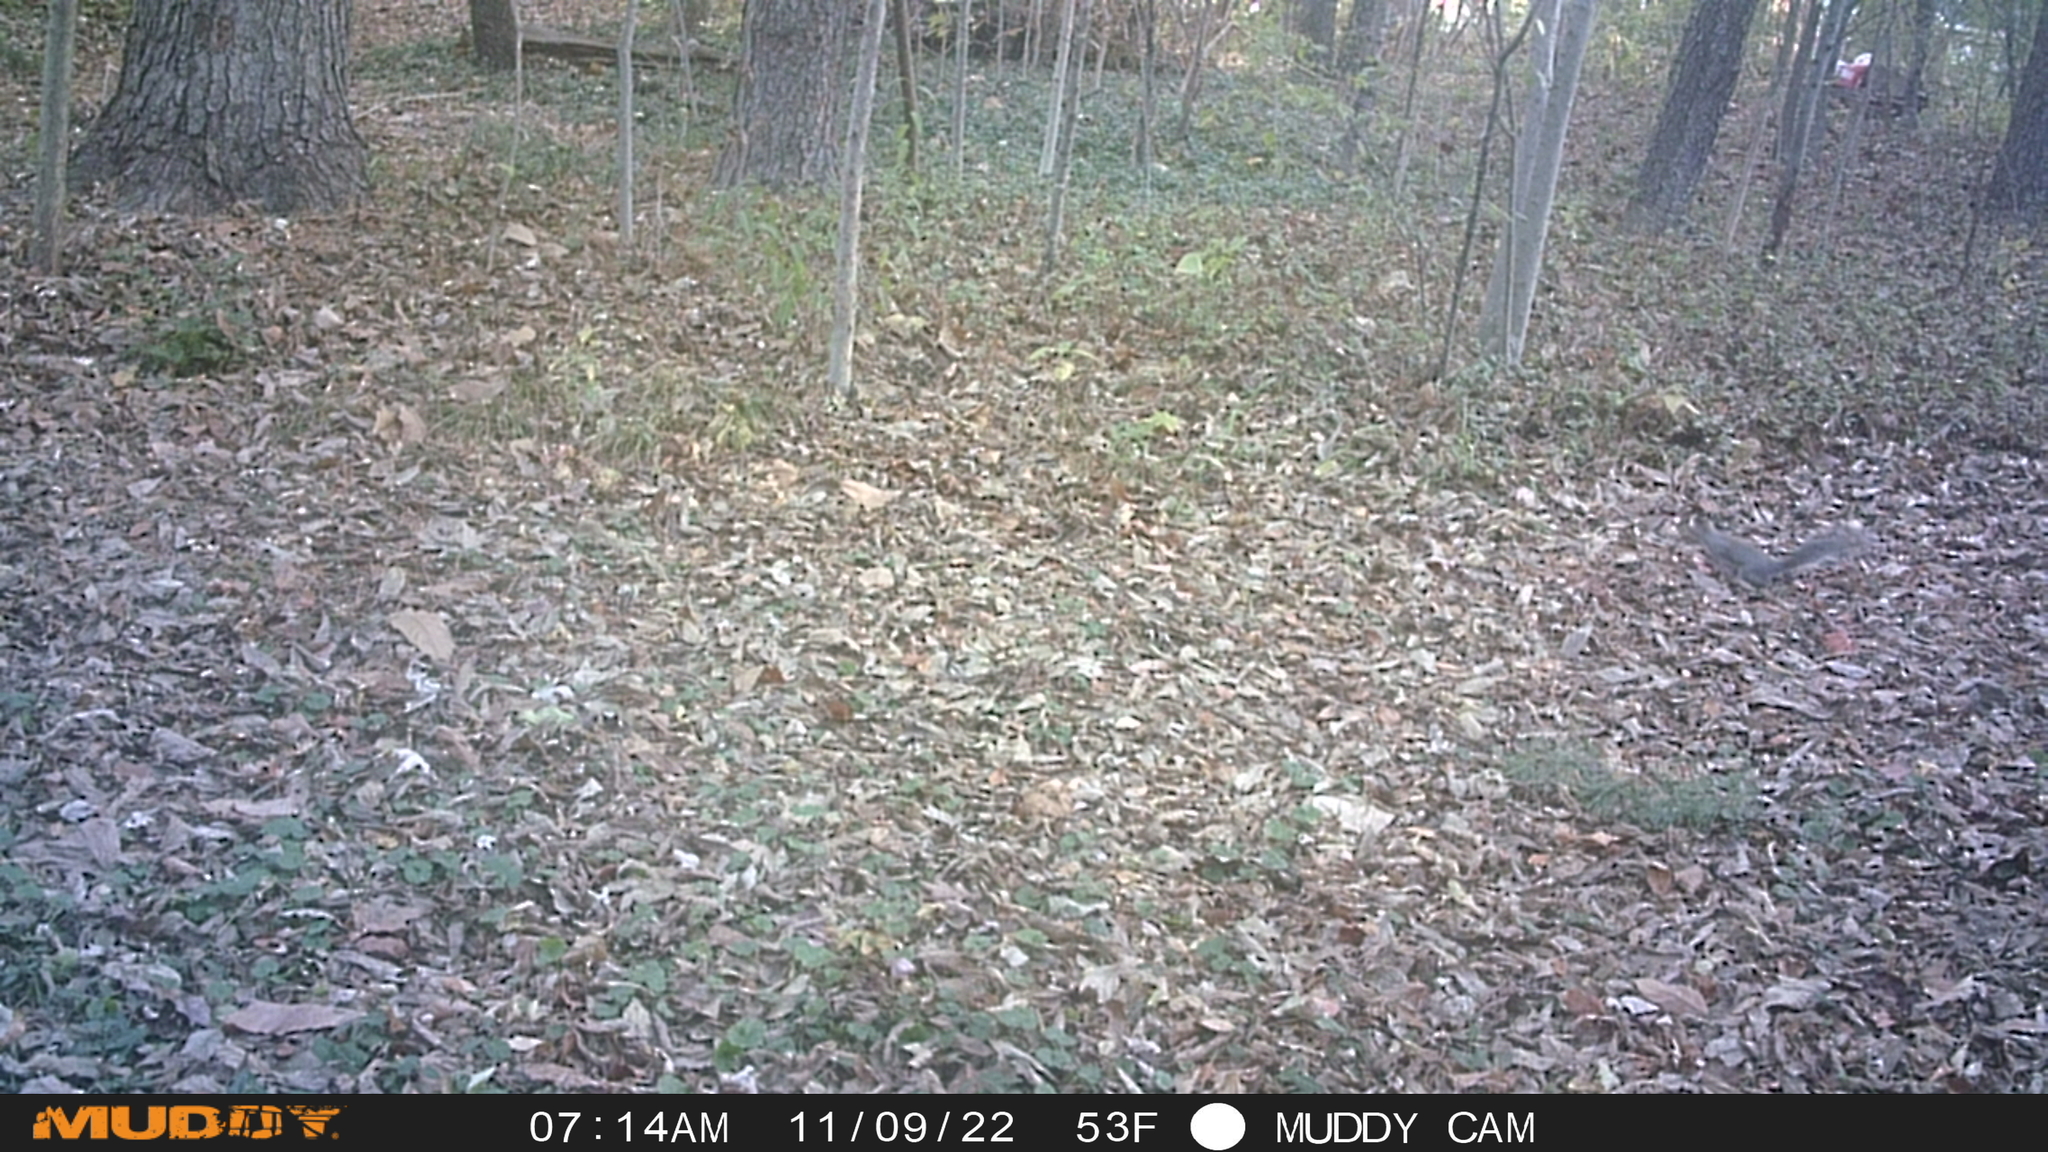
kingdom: Animalia
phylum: Chordata
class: Mammalia
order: Rodentia
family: Sciuridae
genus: Sciurus
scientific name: Sciurus carolinensis
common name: Eastern gray squirrel
